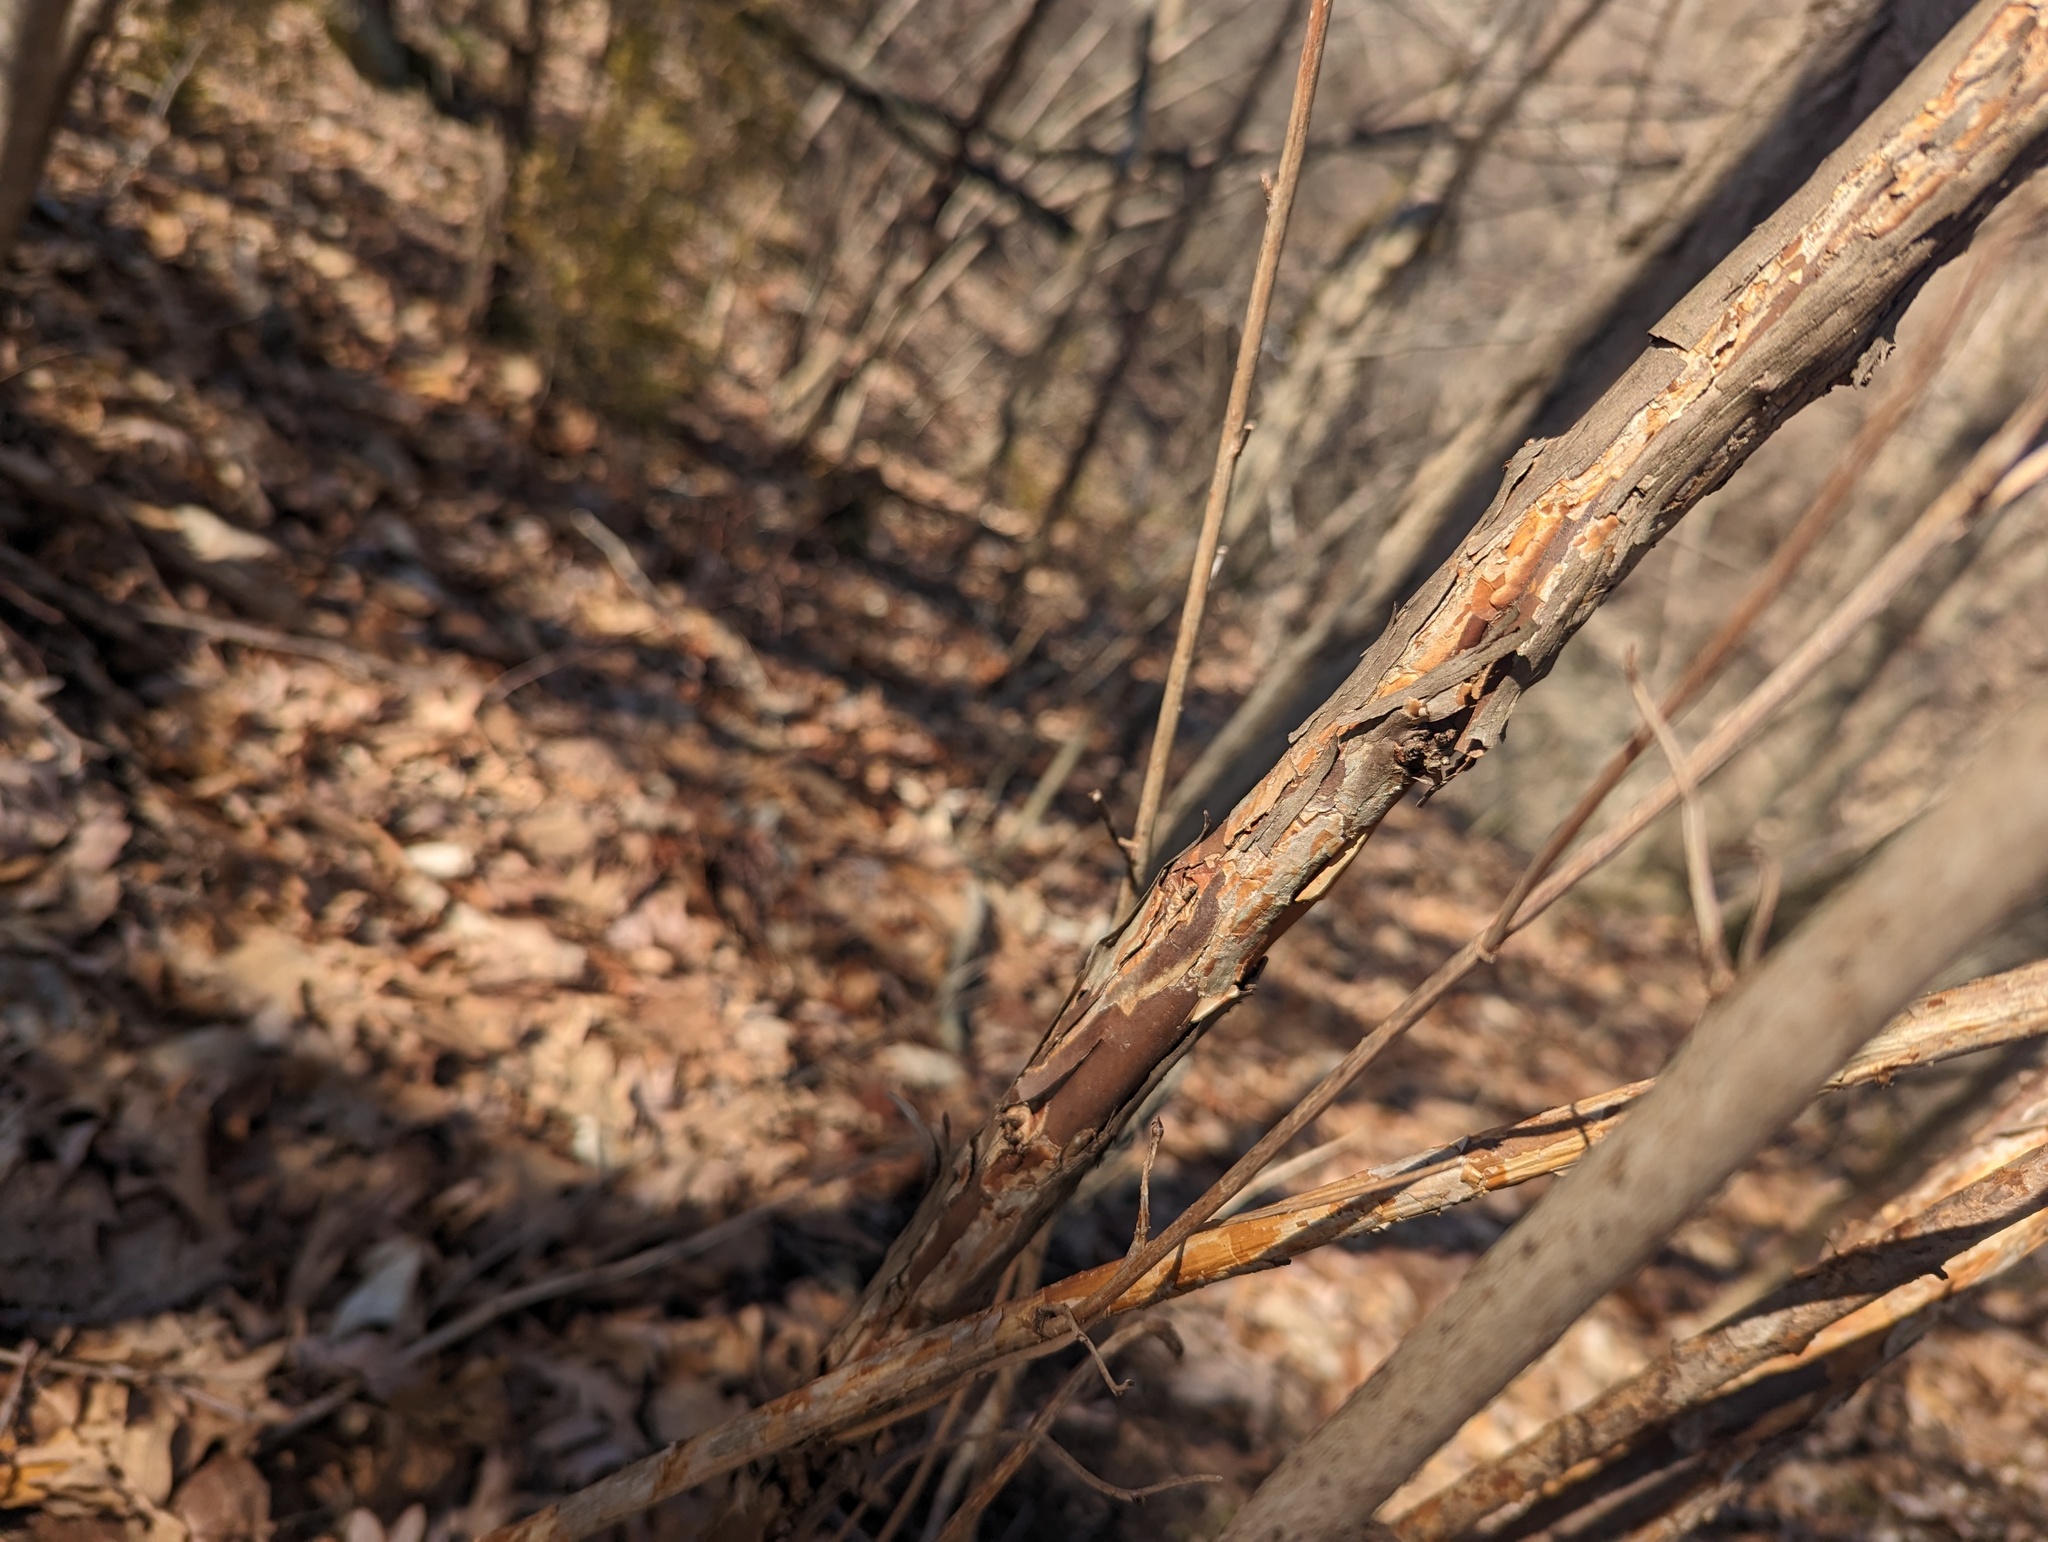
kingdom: Plantae
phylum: Tracheophyta
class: Magnoliopsida
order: Rosales
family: Rosaceae
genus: Physocarpus
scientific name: Physocarpus opulifolius
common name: Ninebark
